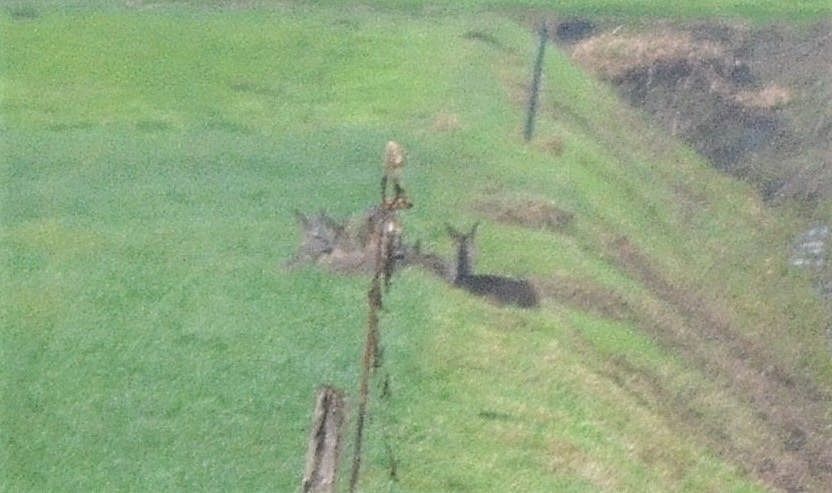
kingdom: Animalia
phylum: Chordata
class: Mammalia
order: Artiodactyla
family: Cervidae
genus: Capreolus
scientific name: Capreolus capreolus
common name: Western roe deer
